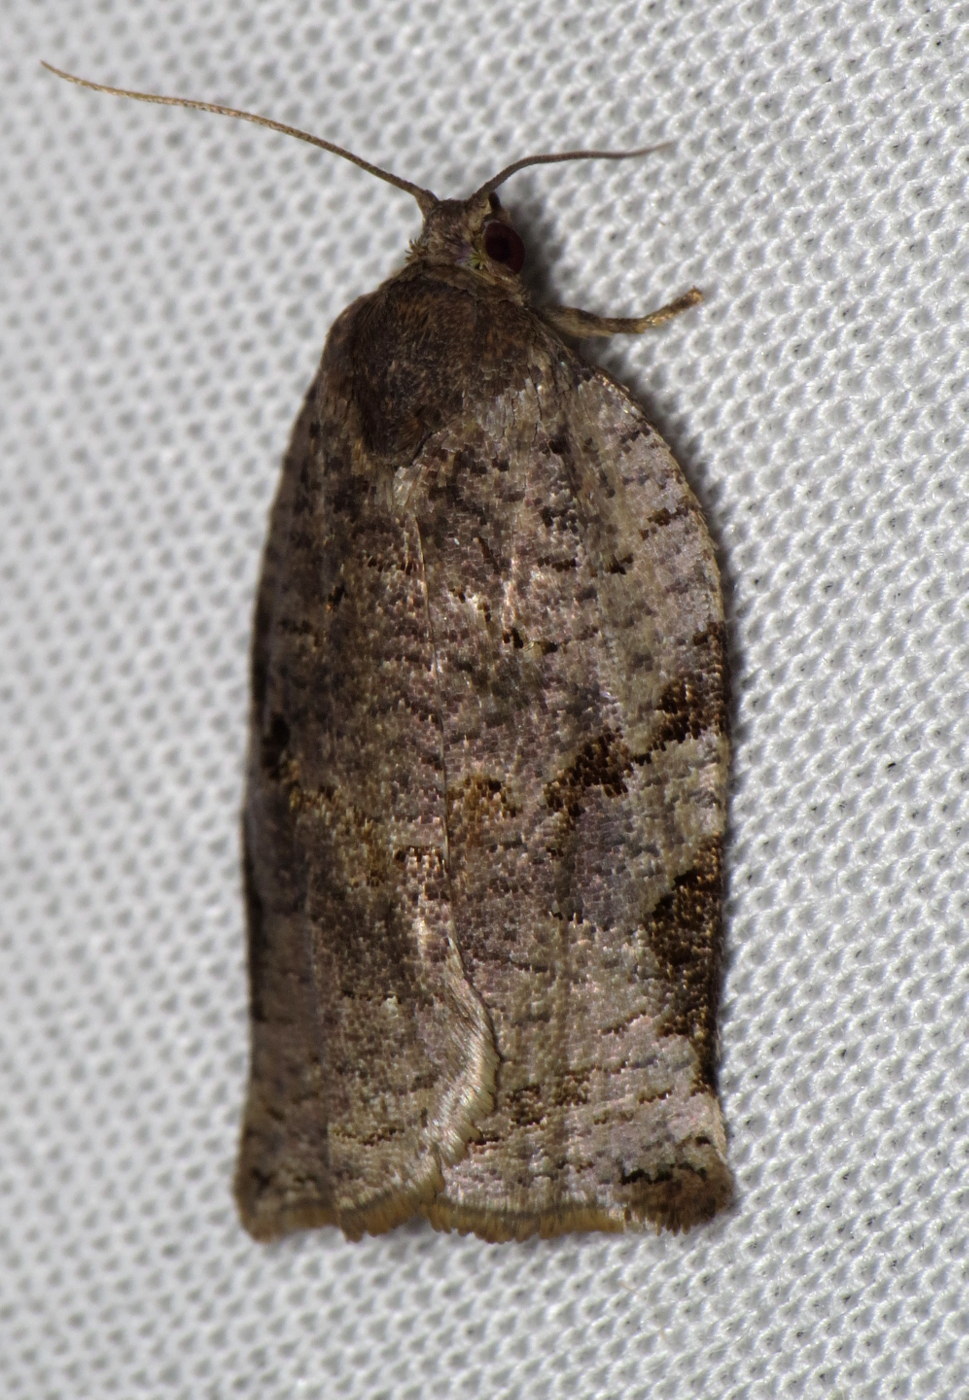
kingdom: Animalia
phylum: Arthropoda
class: Insecta
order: Lepidoptera
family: Tortricidae
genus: Archips
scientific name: Archips grisea
